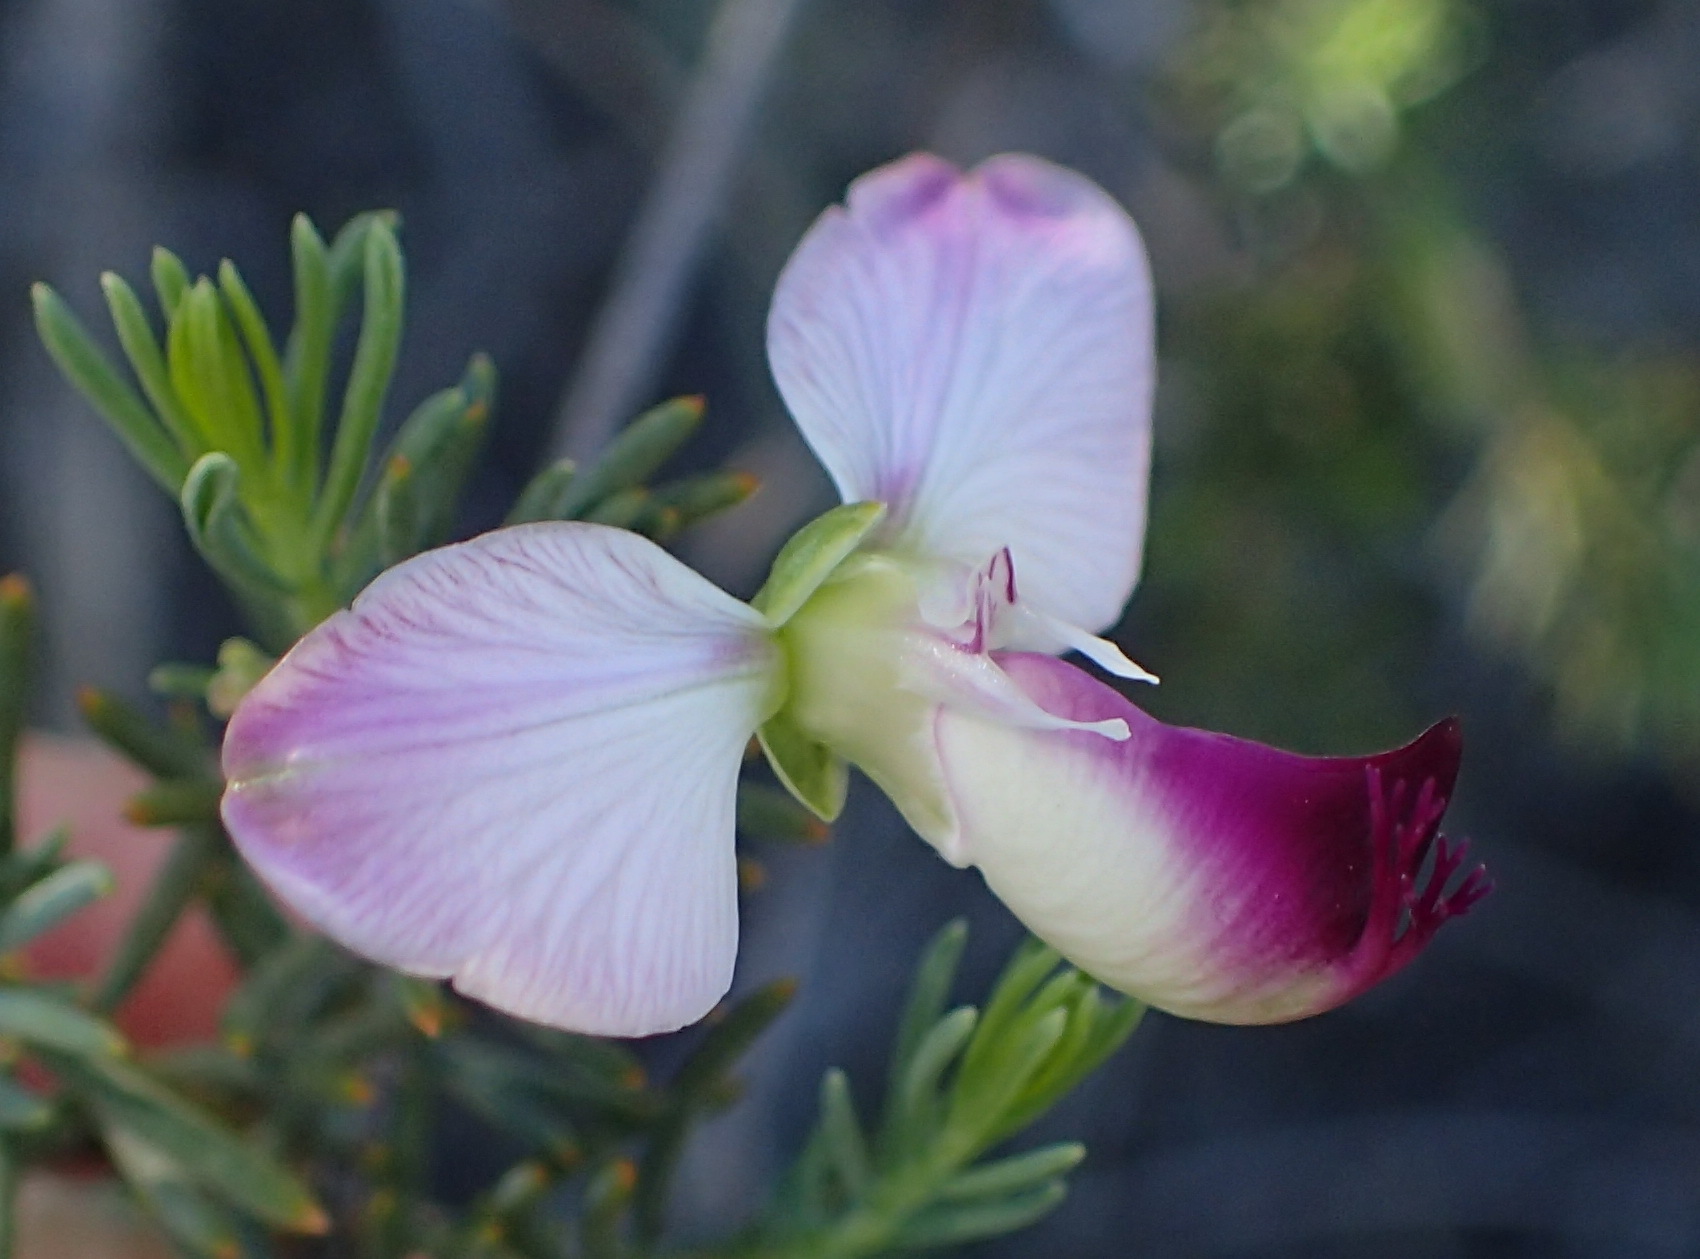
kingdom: Plantae
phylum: Tracheophyta
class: Magnoliopsida
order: Fabales
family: Polygalaceae
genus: Polygala
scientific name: Polygala myrtifolia
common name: Myrtle-leaf milkwort
